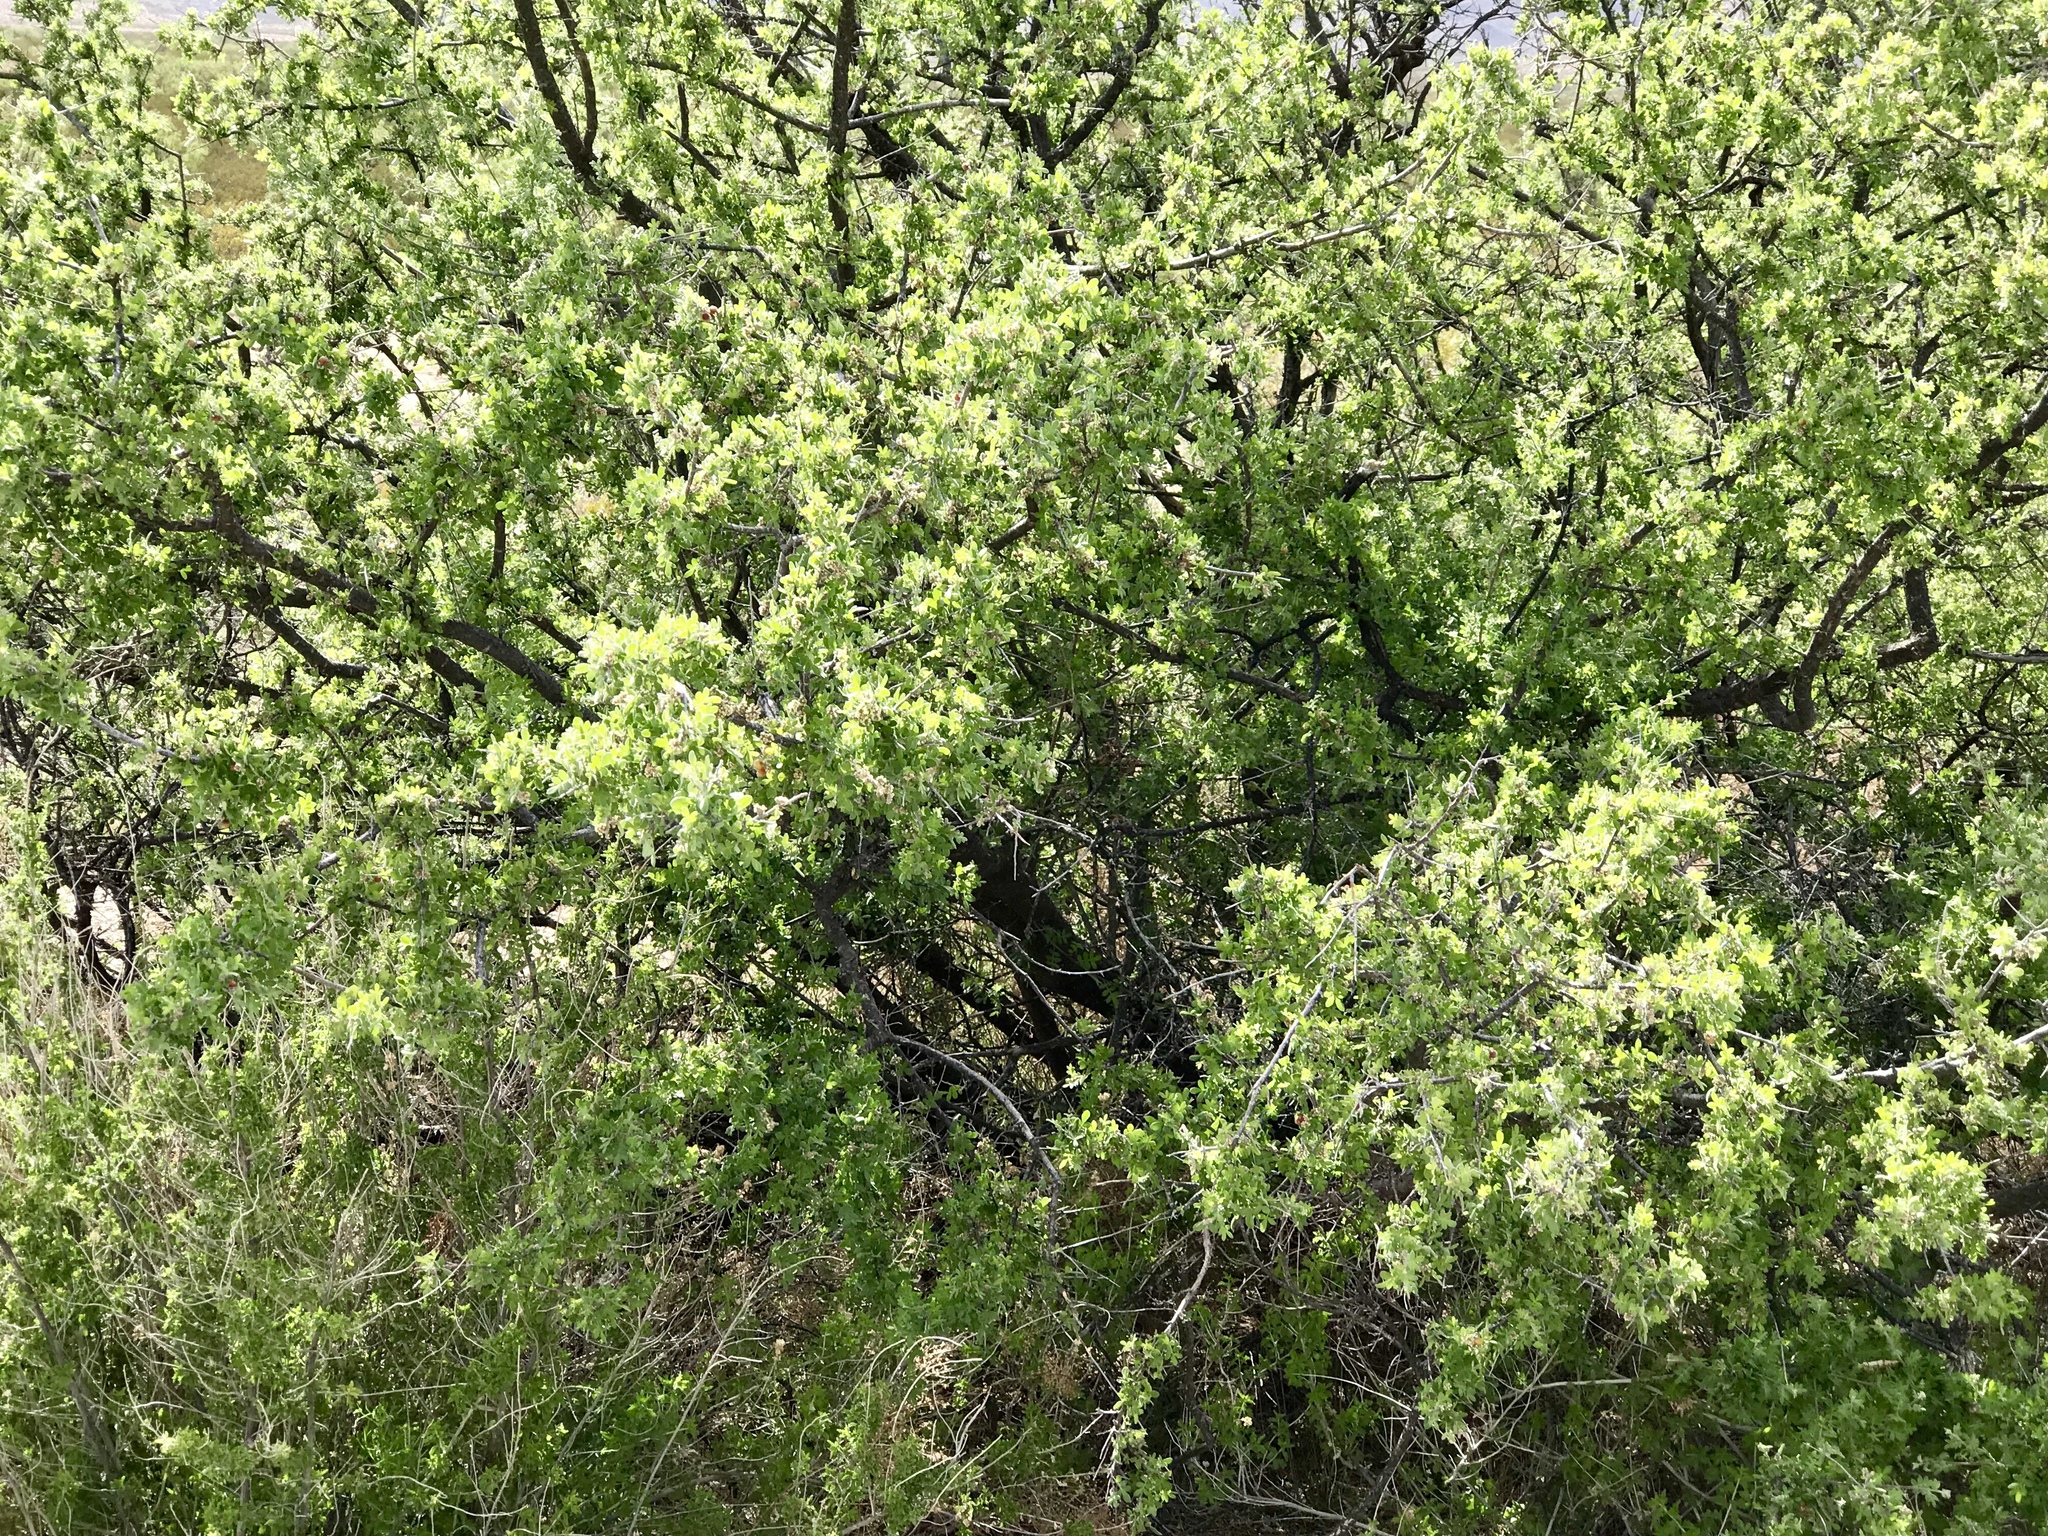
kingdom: Plantae
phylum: Tracheophyta
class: Magnoliopsida
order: Sapindales
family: Anacardiaceae
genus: Rhus
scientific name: Rhus microphylla
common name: Desert sumac
